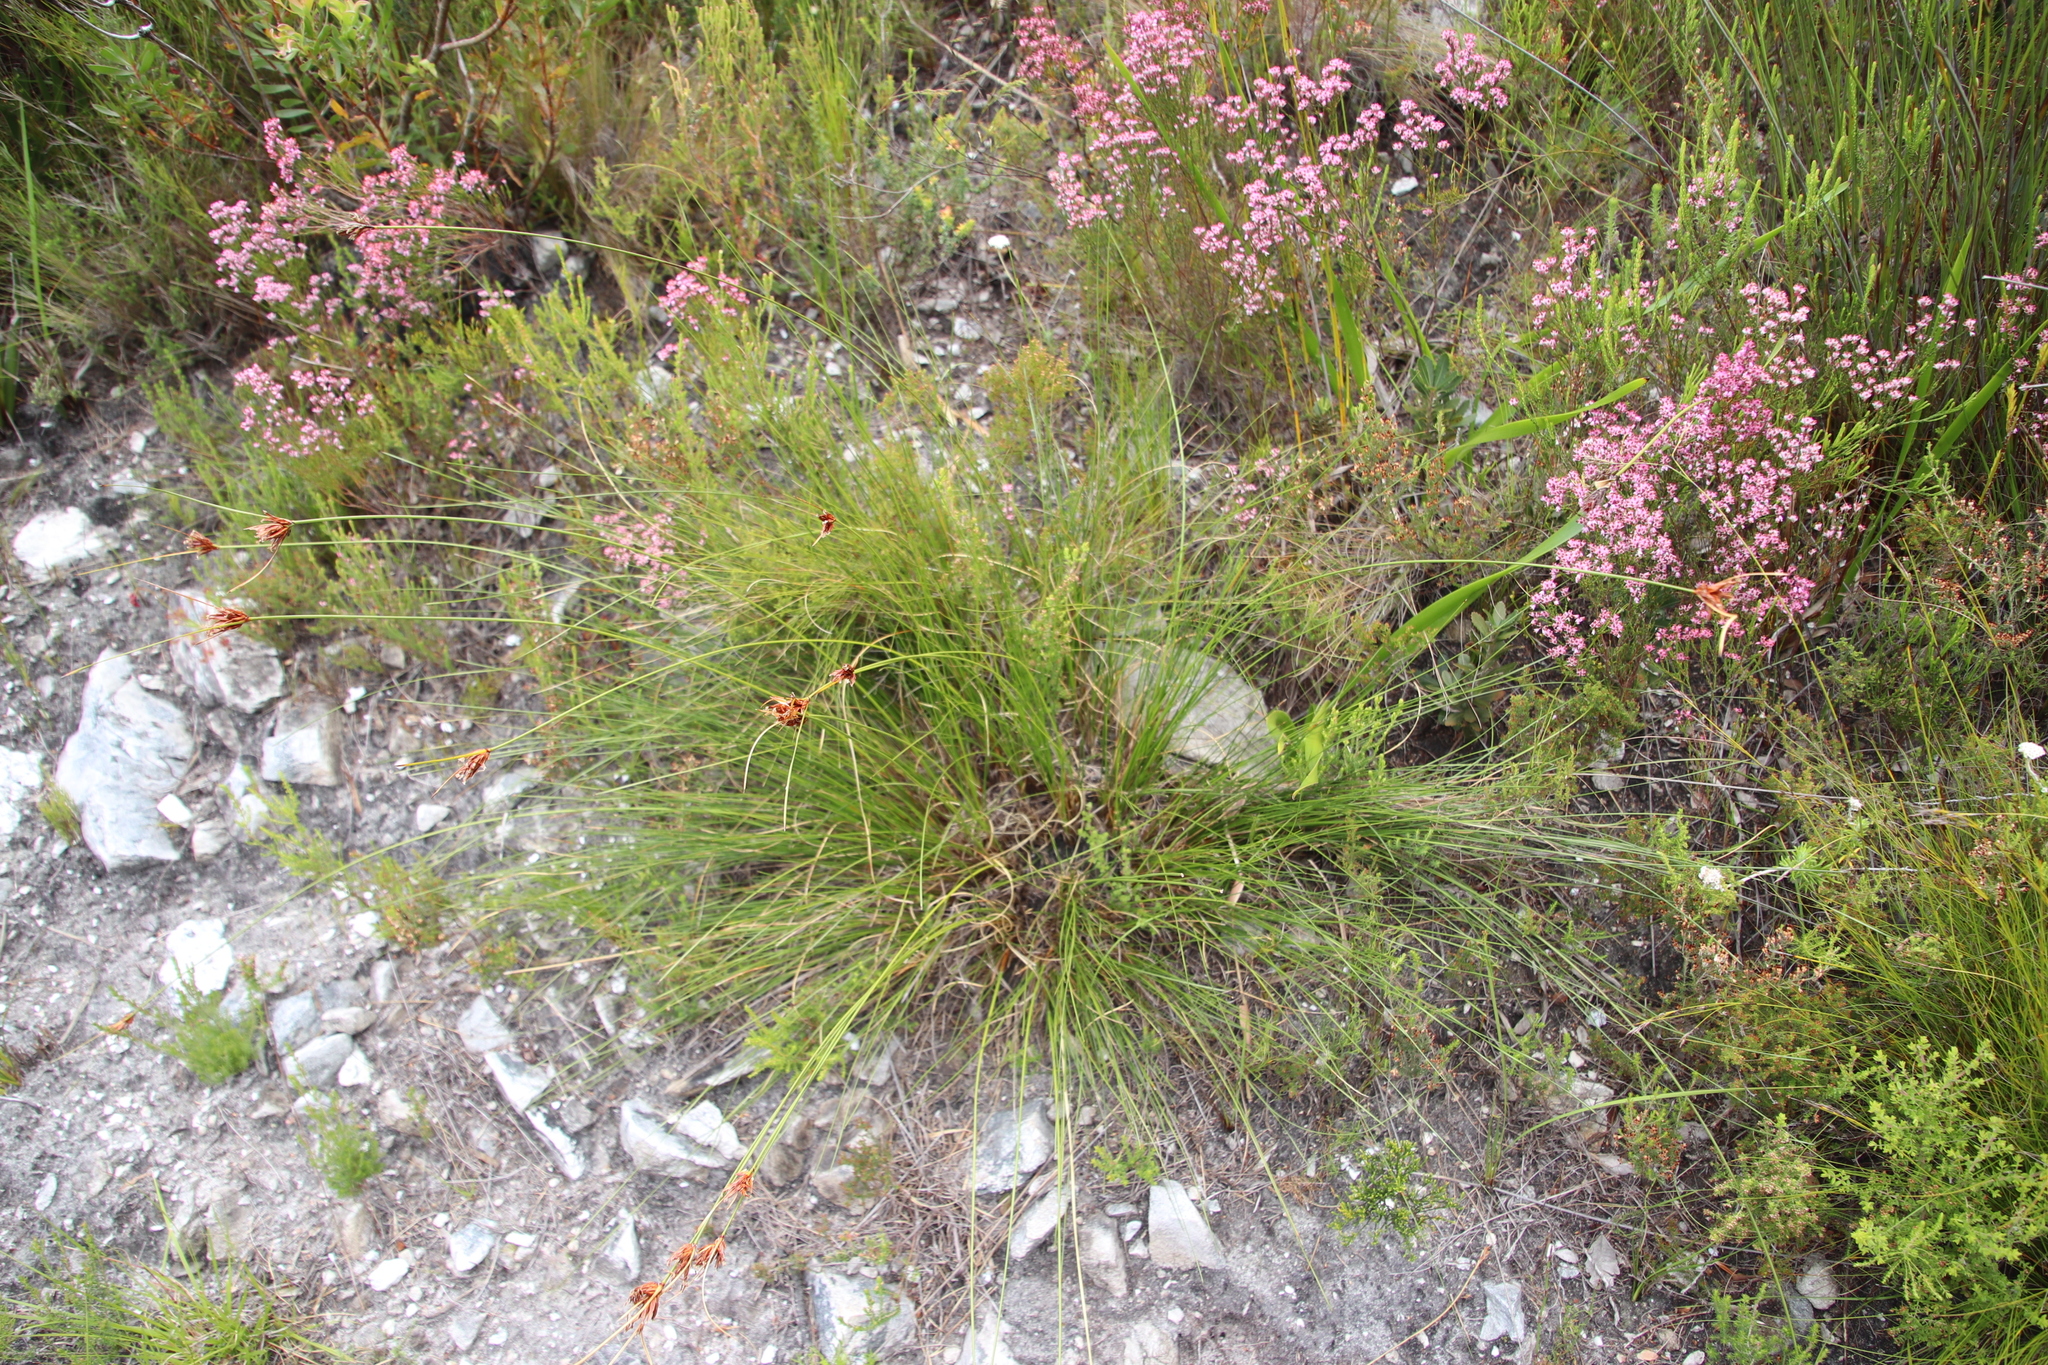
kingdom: Plantae
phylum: Tracheophyta
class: Liliopsida
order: Poales
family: Cyperaceae
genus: Schoenus
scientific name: Schoenus compar
